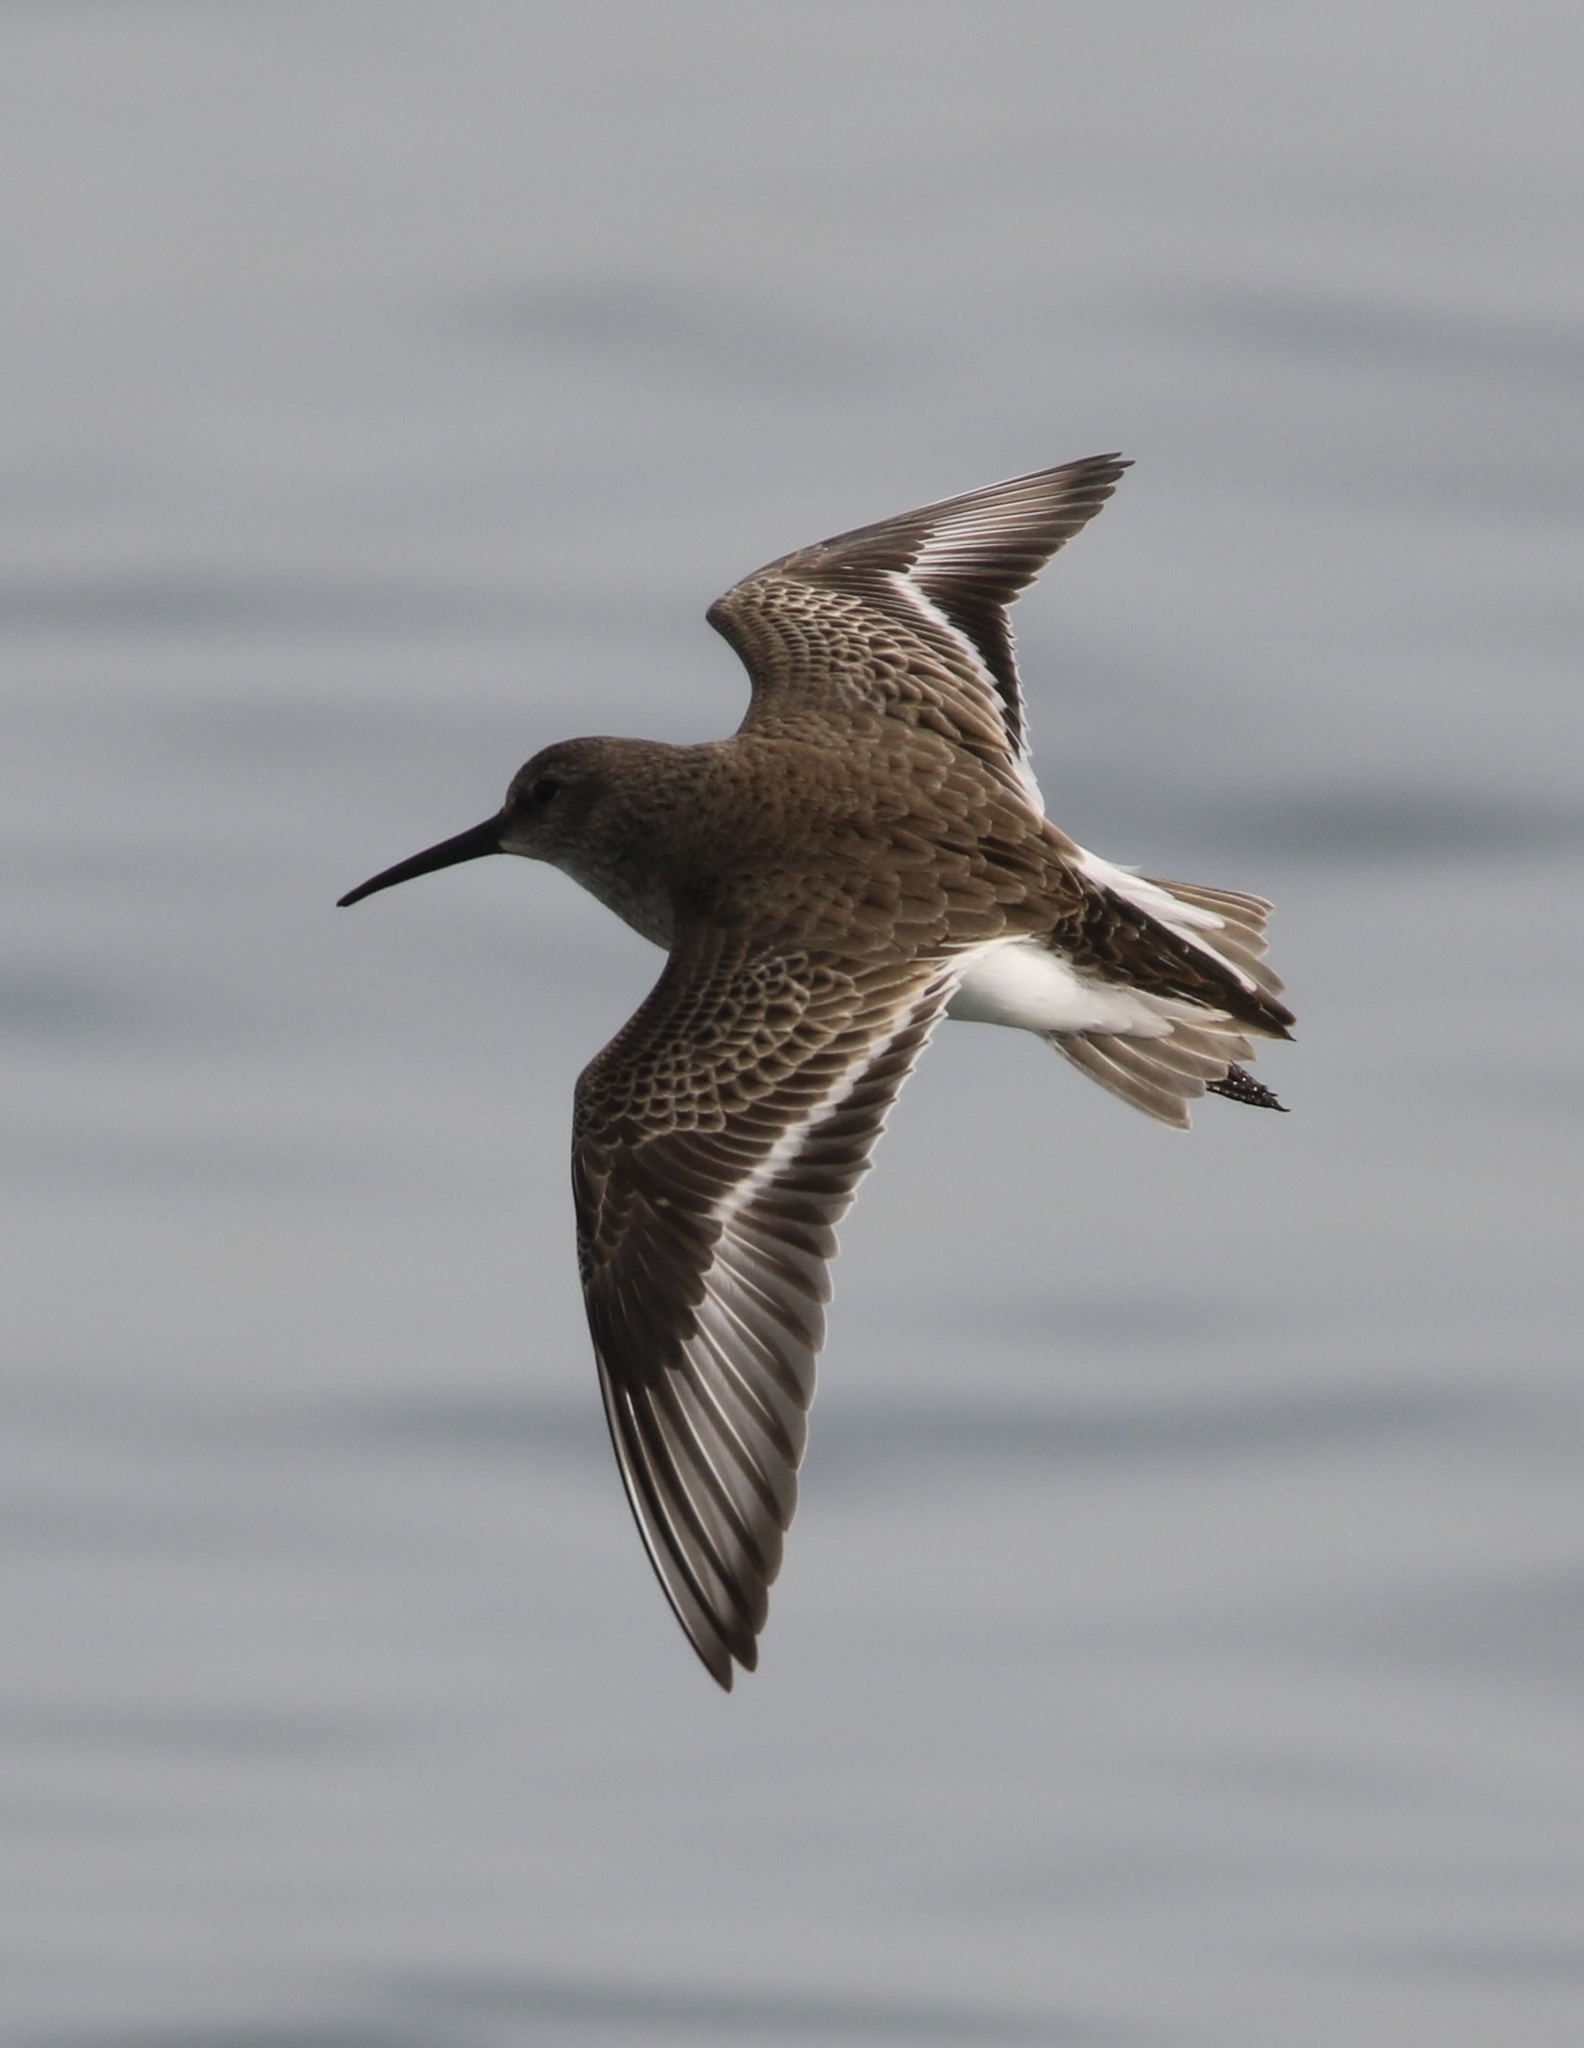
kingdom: Animalia
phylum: Chordata
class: Aves
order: Charadriiformes
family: Scolopacidae
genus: Calidris
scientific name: Calidris alpina
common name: Dunlin
